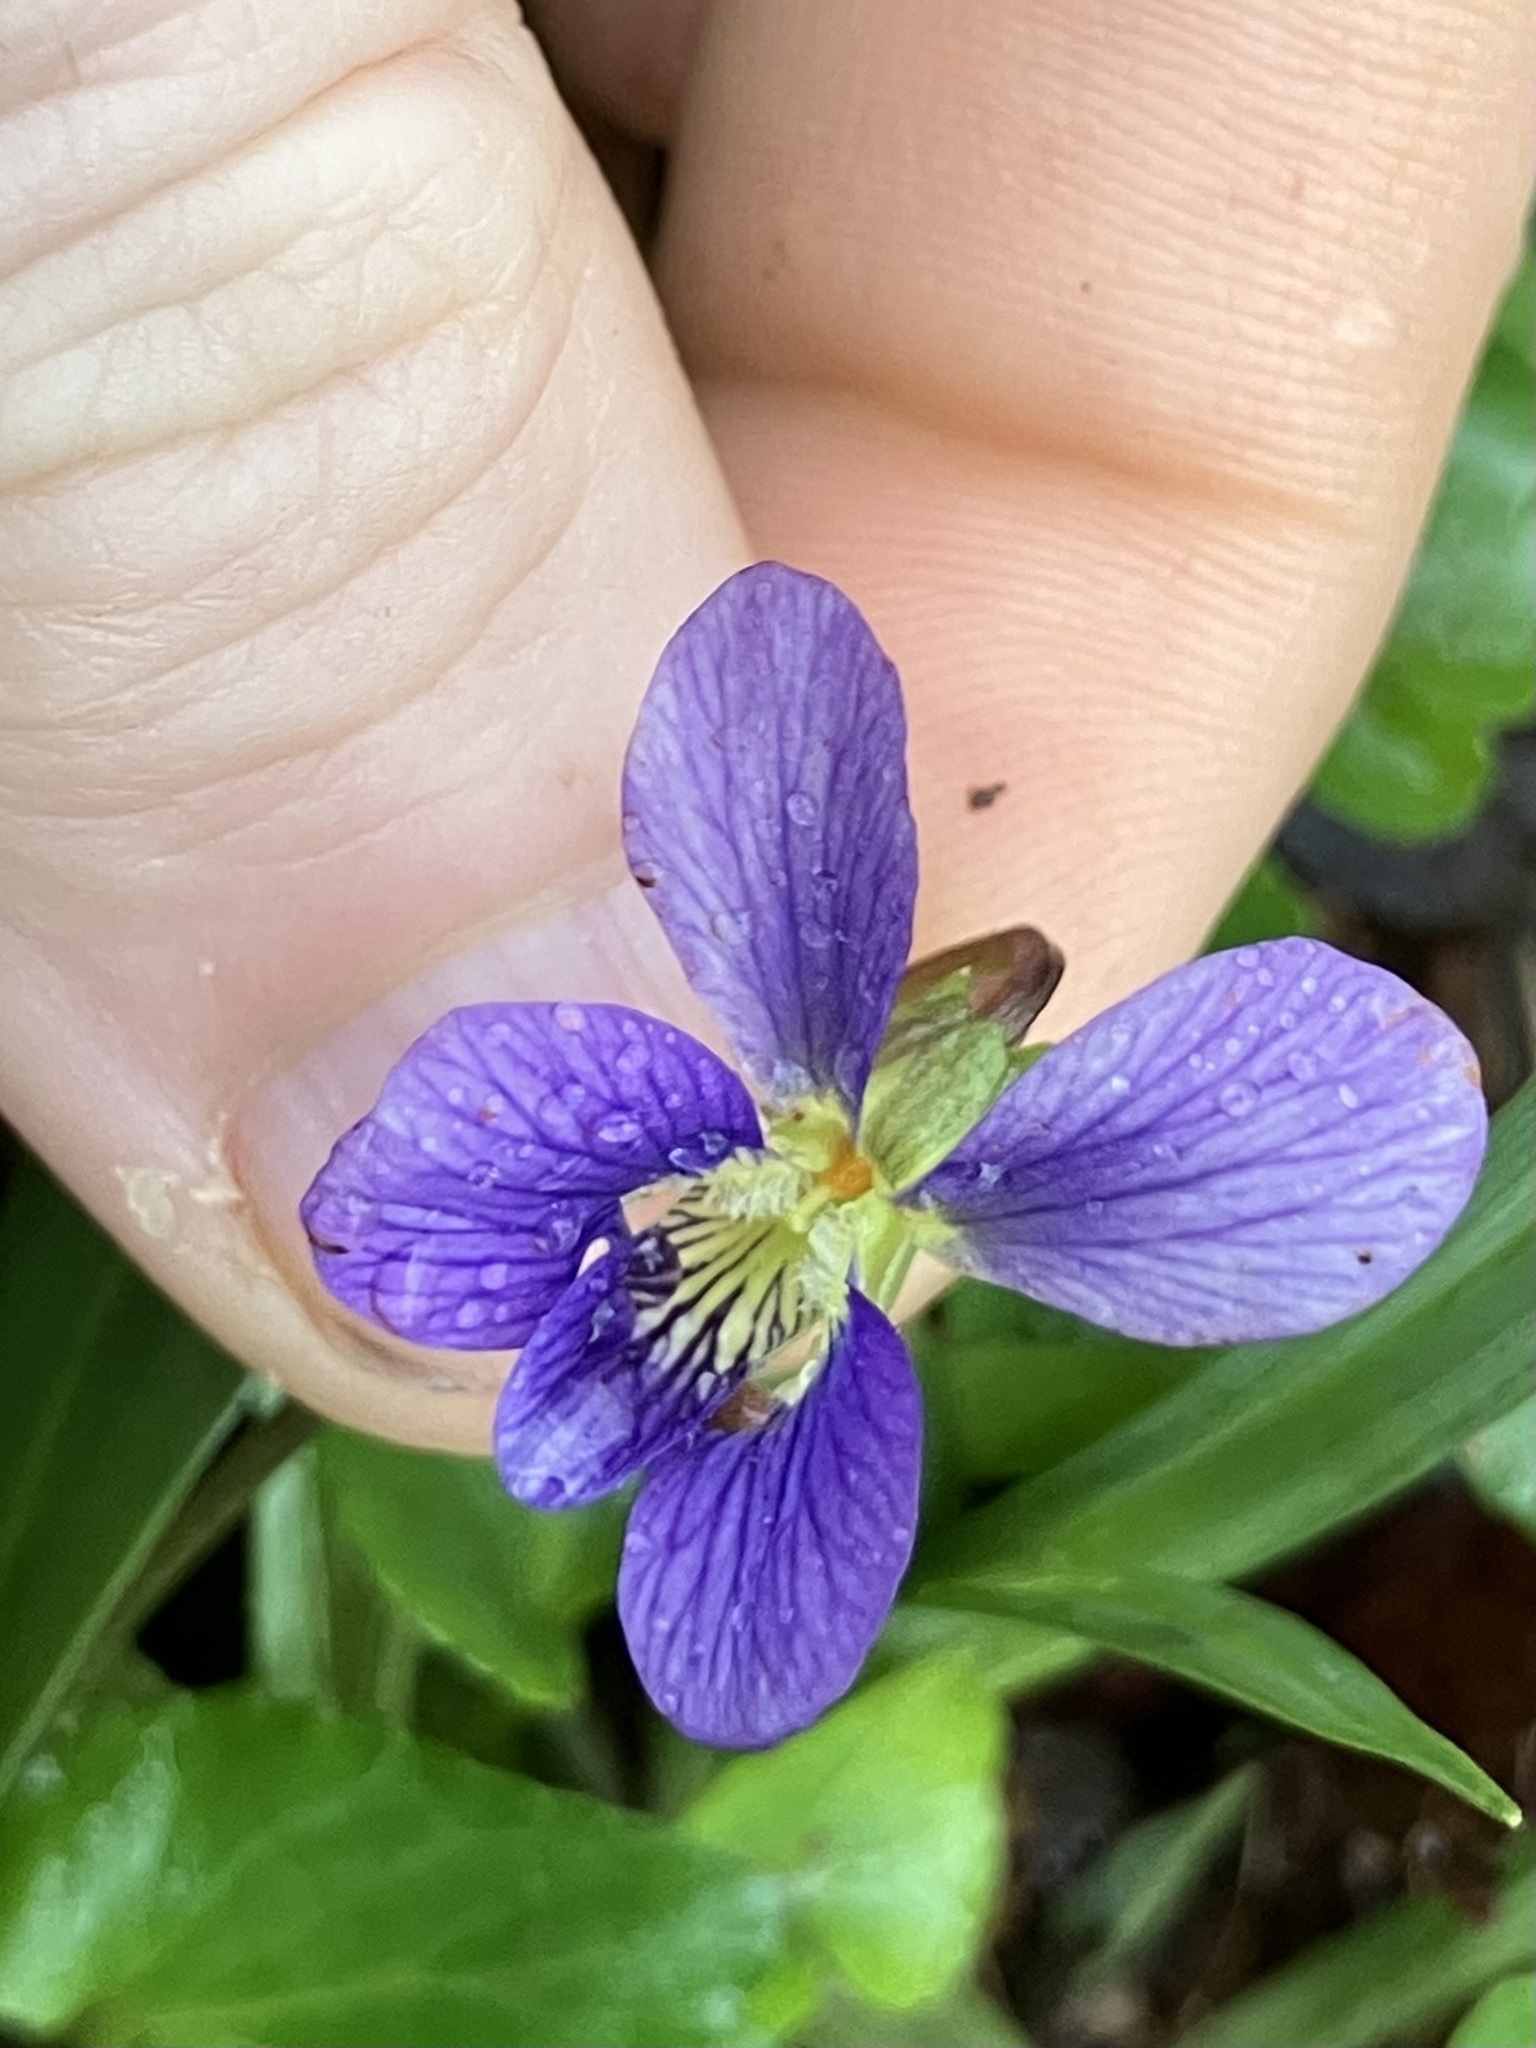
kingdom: Plantae
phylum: Tracheophyta
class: Magnoliopsida
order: Malpighiales
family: Violaceae
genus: Viola
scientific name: Viola cucullata
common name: Marsh blue violet
